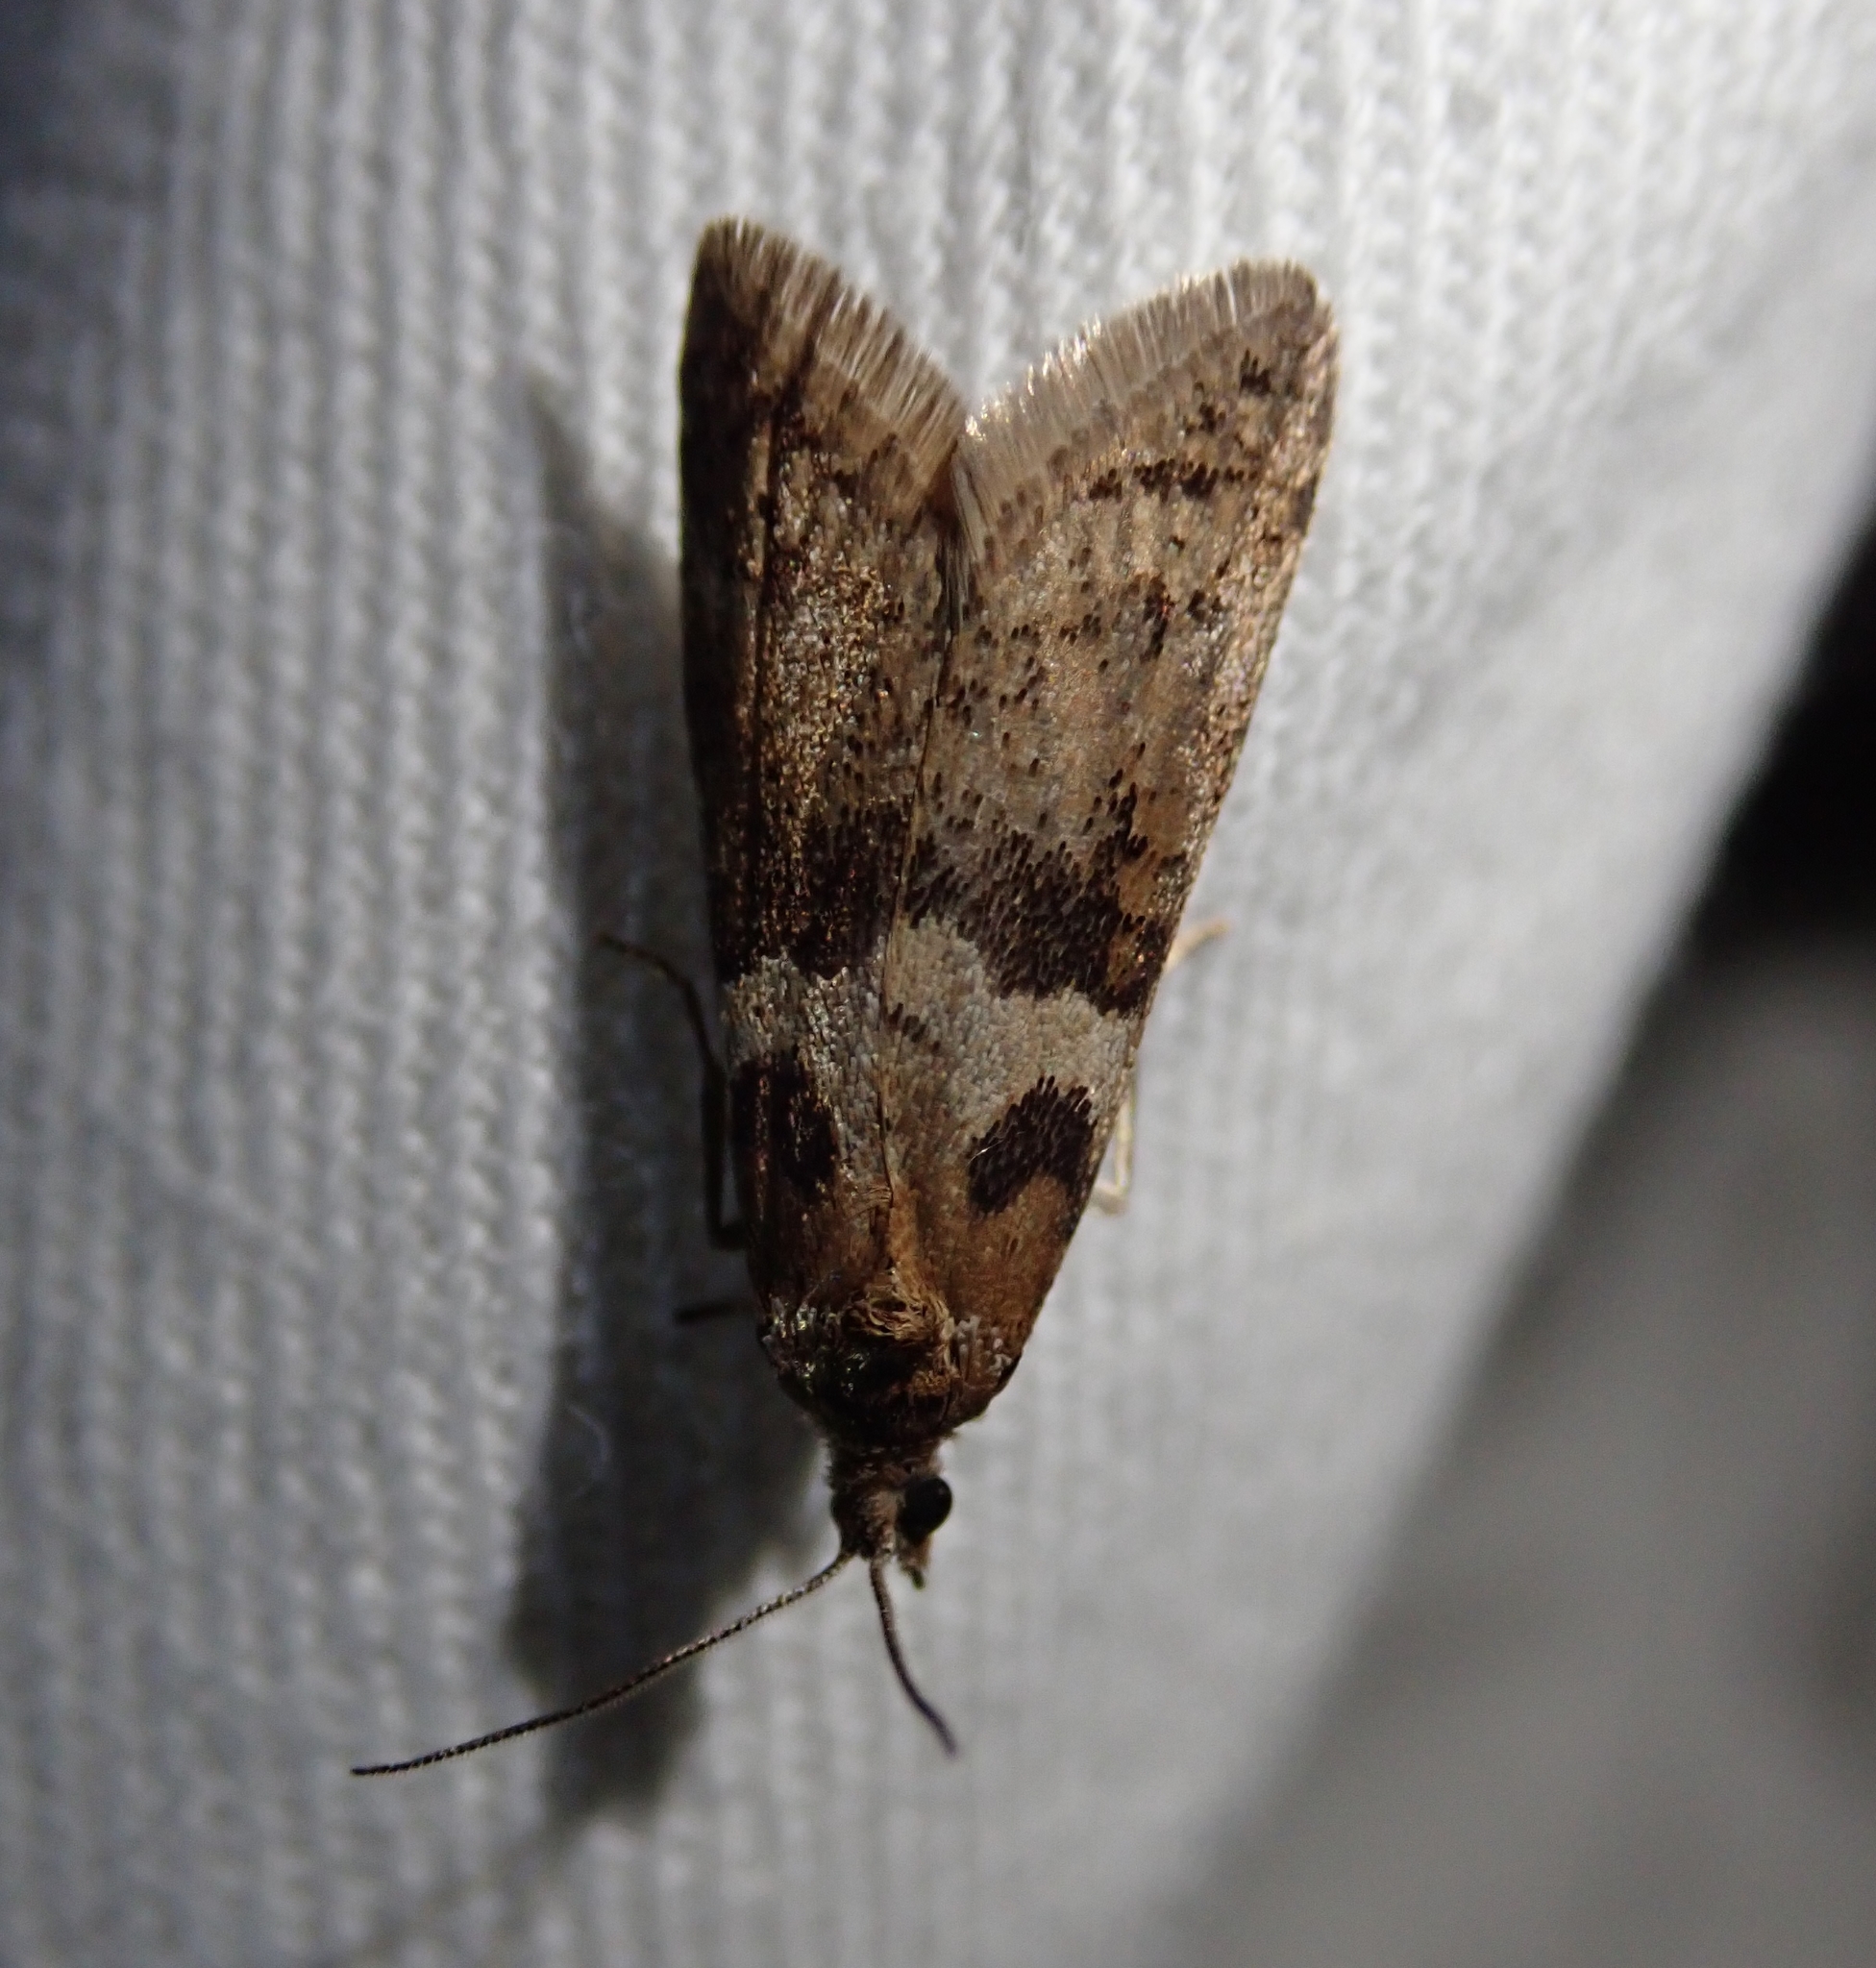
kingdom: Animalia
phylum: Arthropoda
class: Insecta
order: Lepidoptera
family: Tortricidae
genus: Tortricodes
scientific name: Tortricodes alternella
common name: Winter shade
